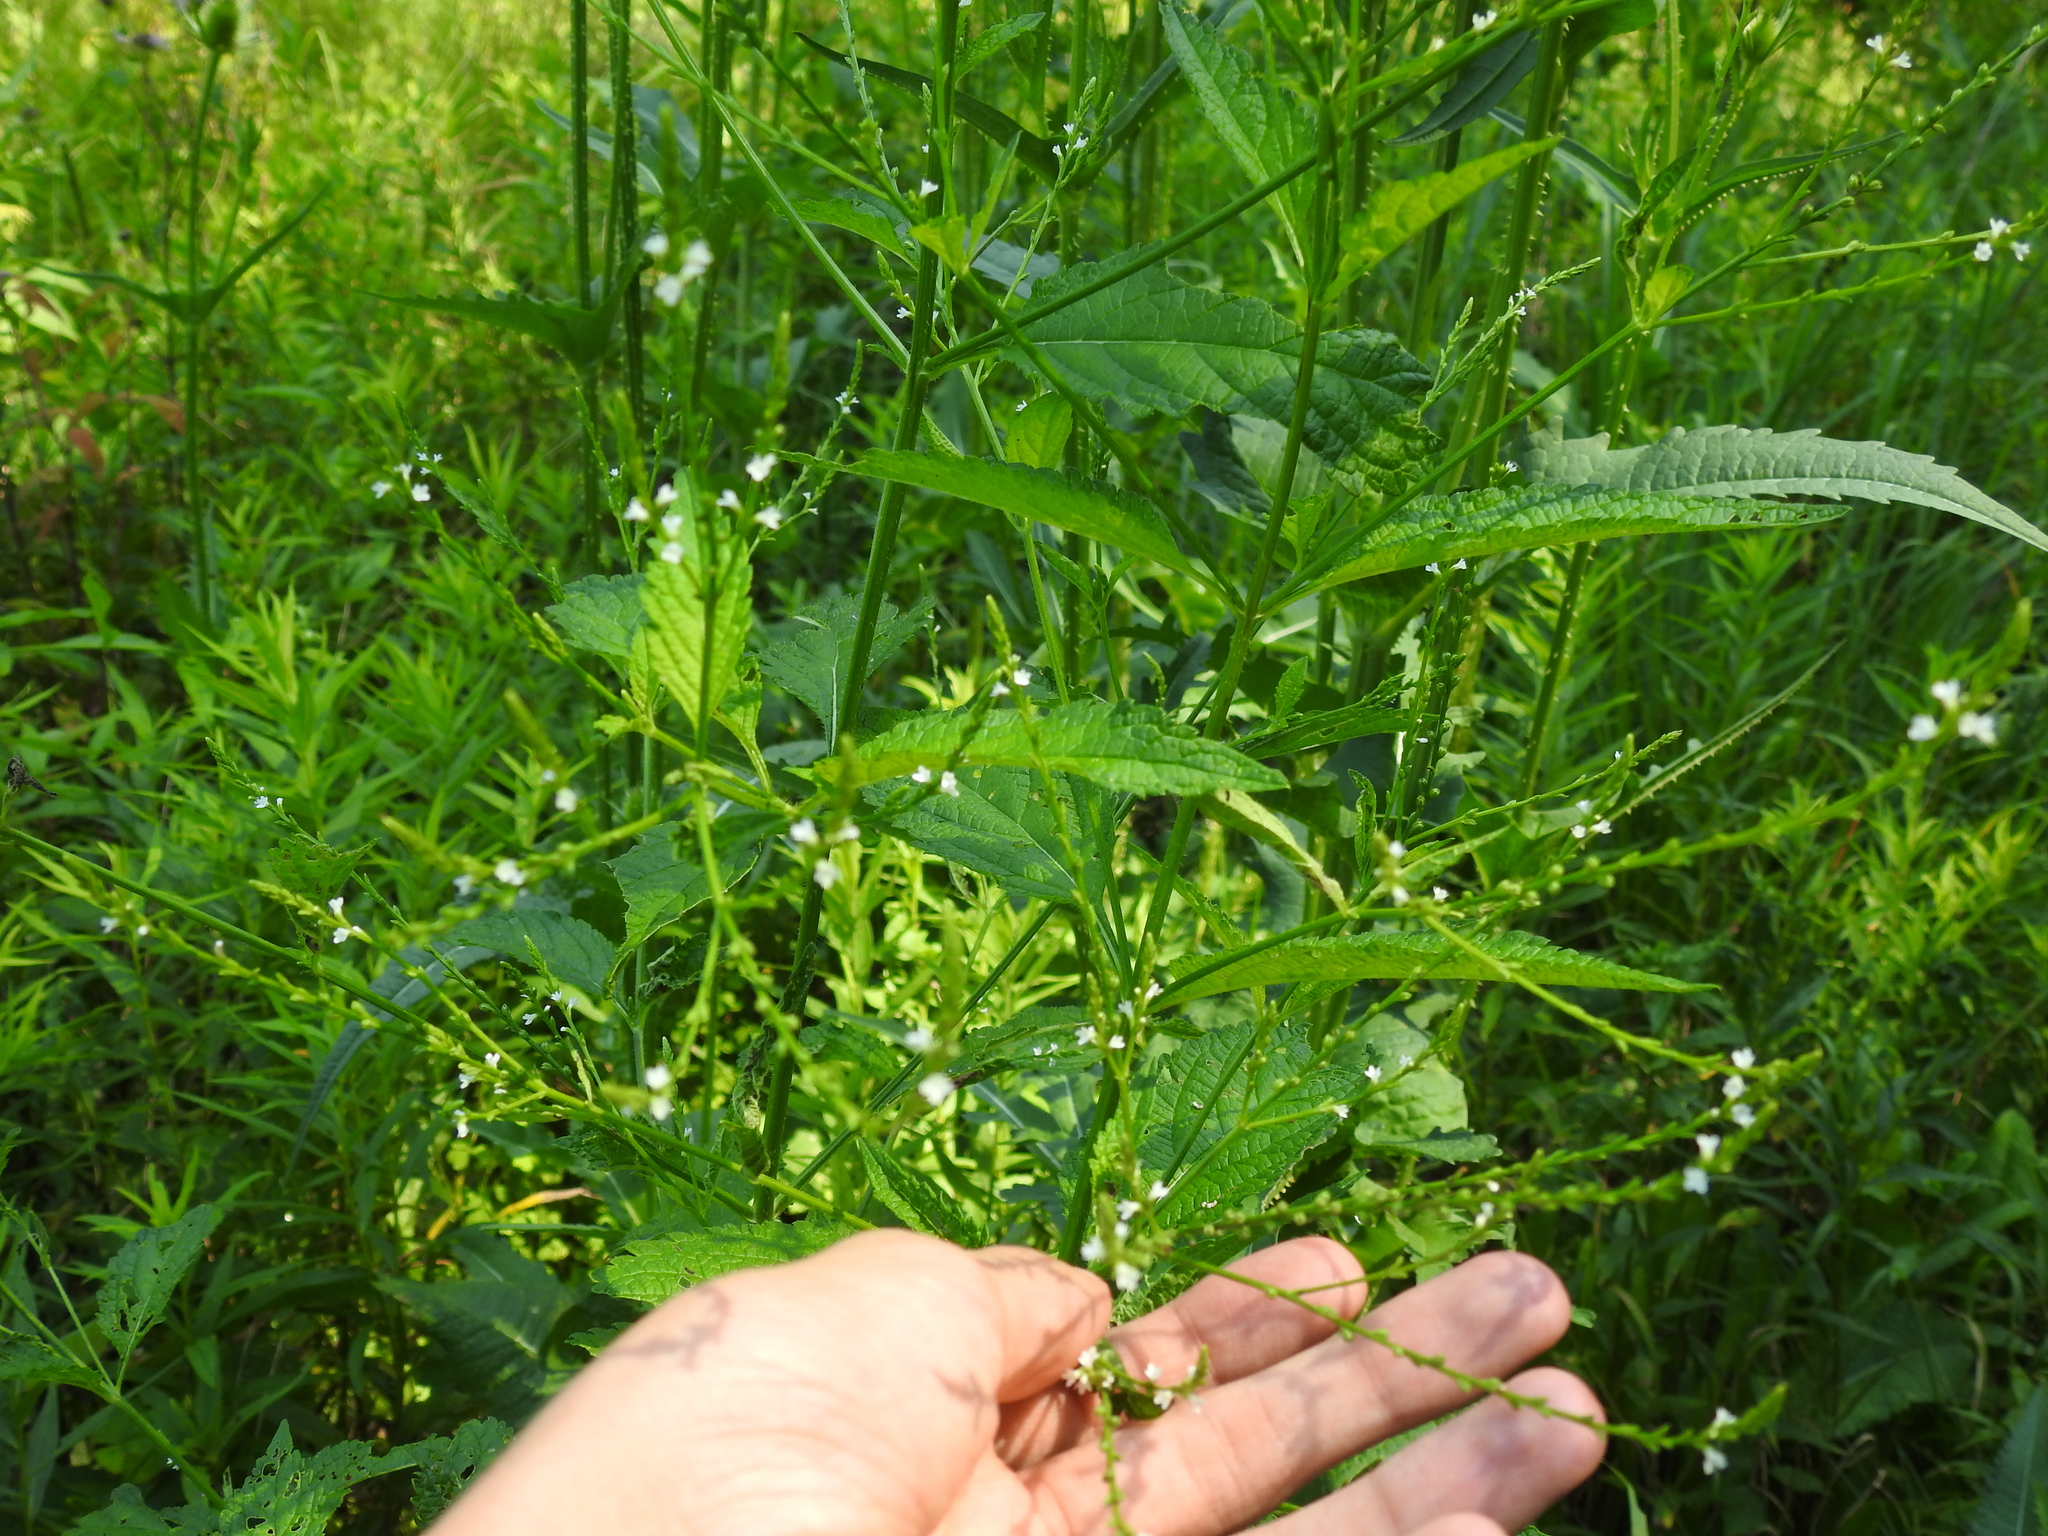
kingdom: Plantae
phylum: Tracheophyta
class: Magnoliopsida
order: Lamiales
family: Verbenaceae
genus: Verbena
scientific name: Verbena urticifolia
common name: Nettle-leaved vervain
